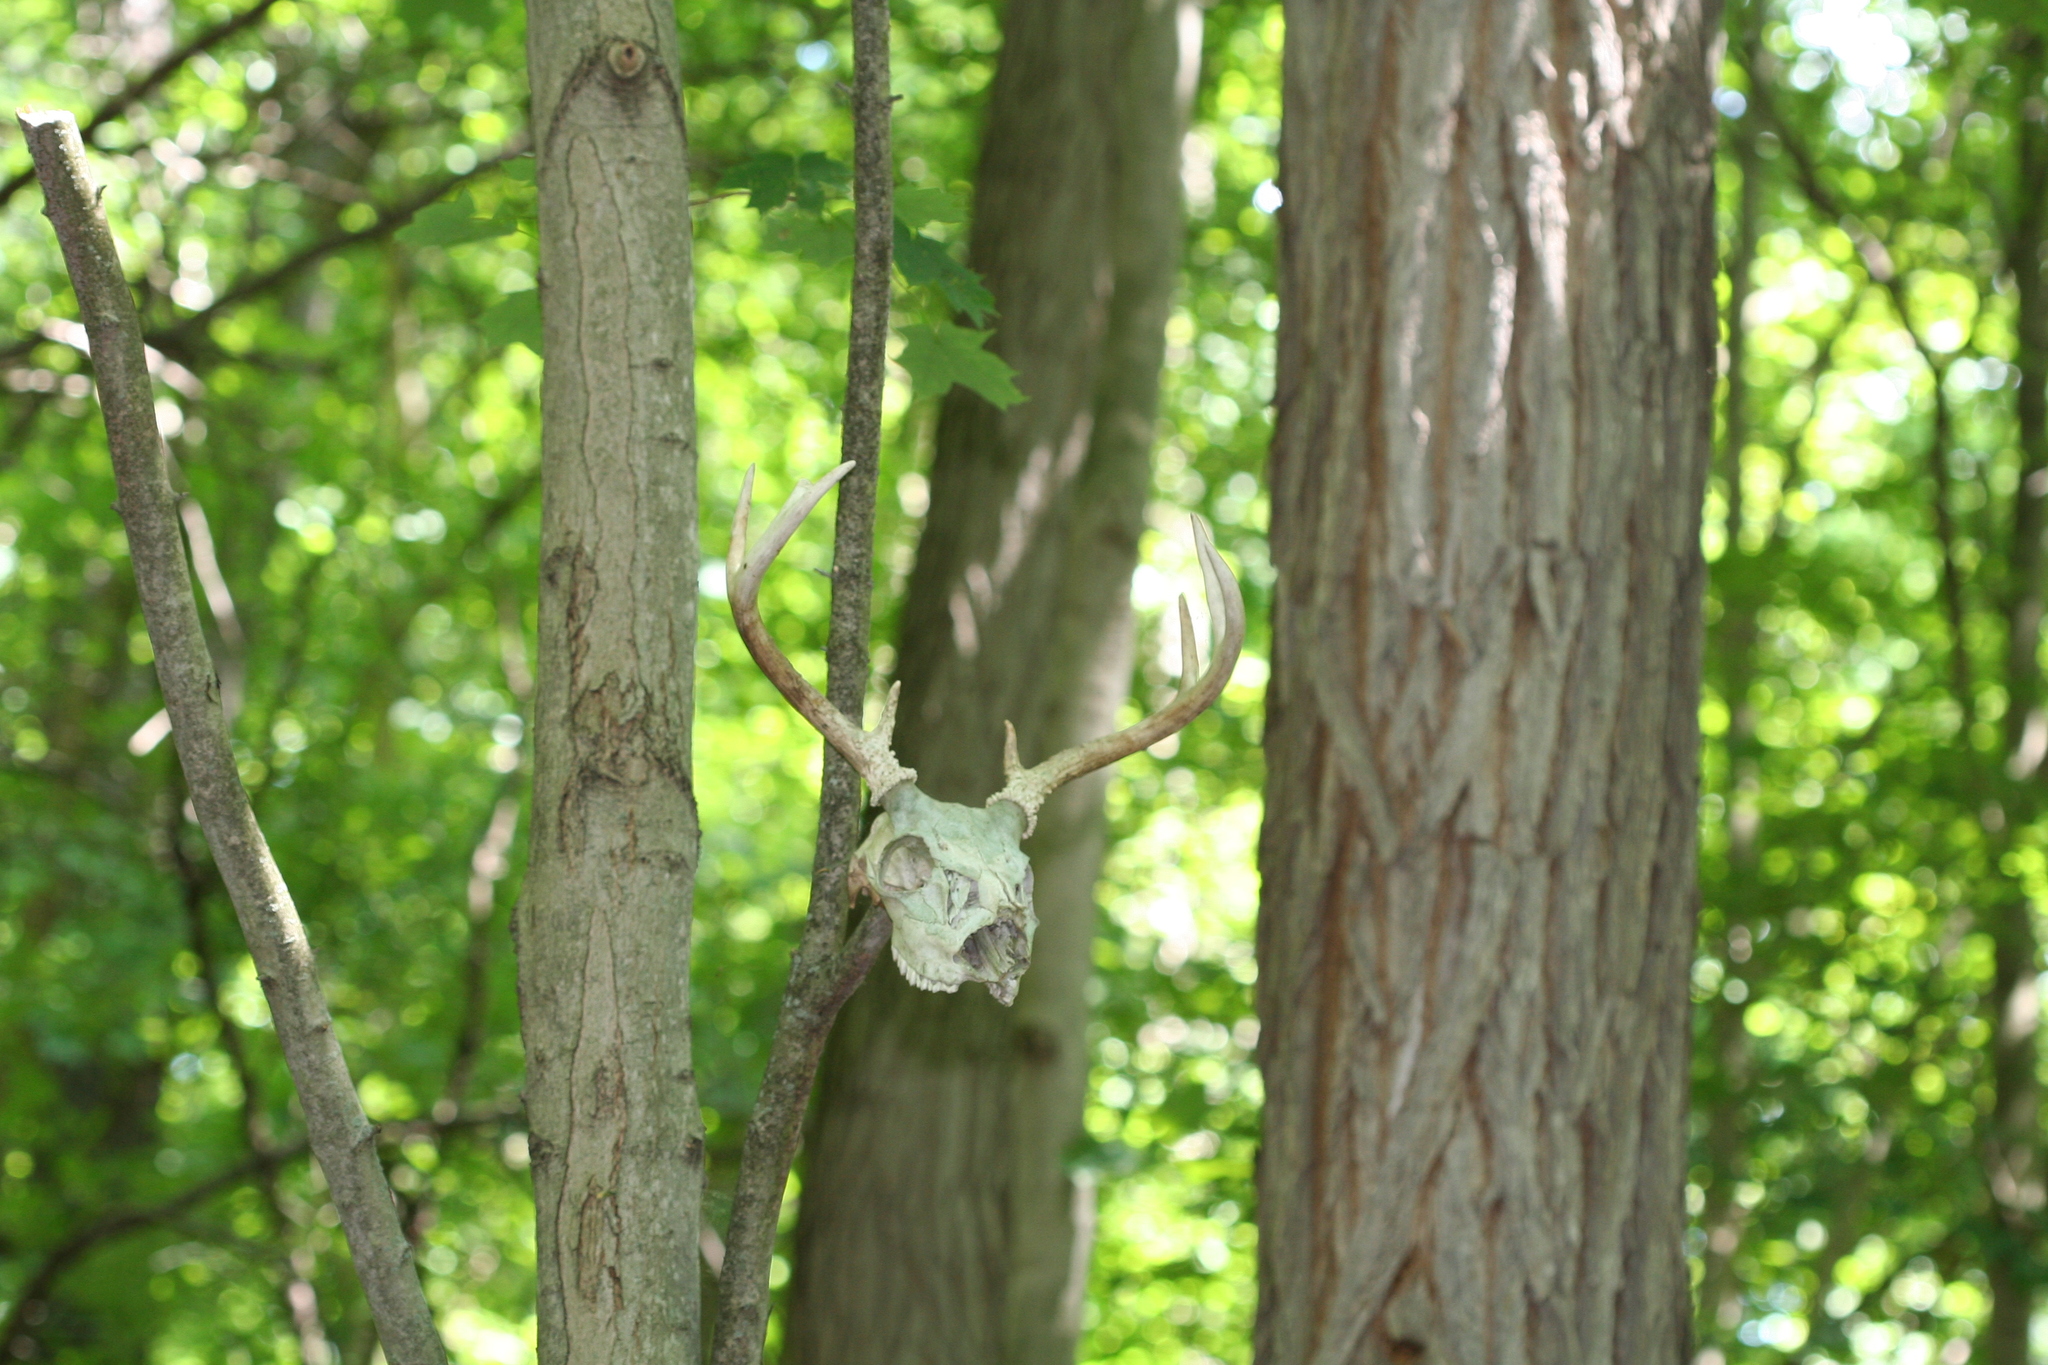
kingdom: Animalia
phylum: Chordata
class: Mammalia
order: Artiodactyla
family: Cervidae
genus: Odocoileus
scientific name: Odocoileus virginianus
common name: White-tailed deer
